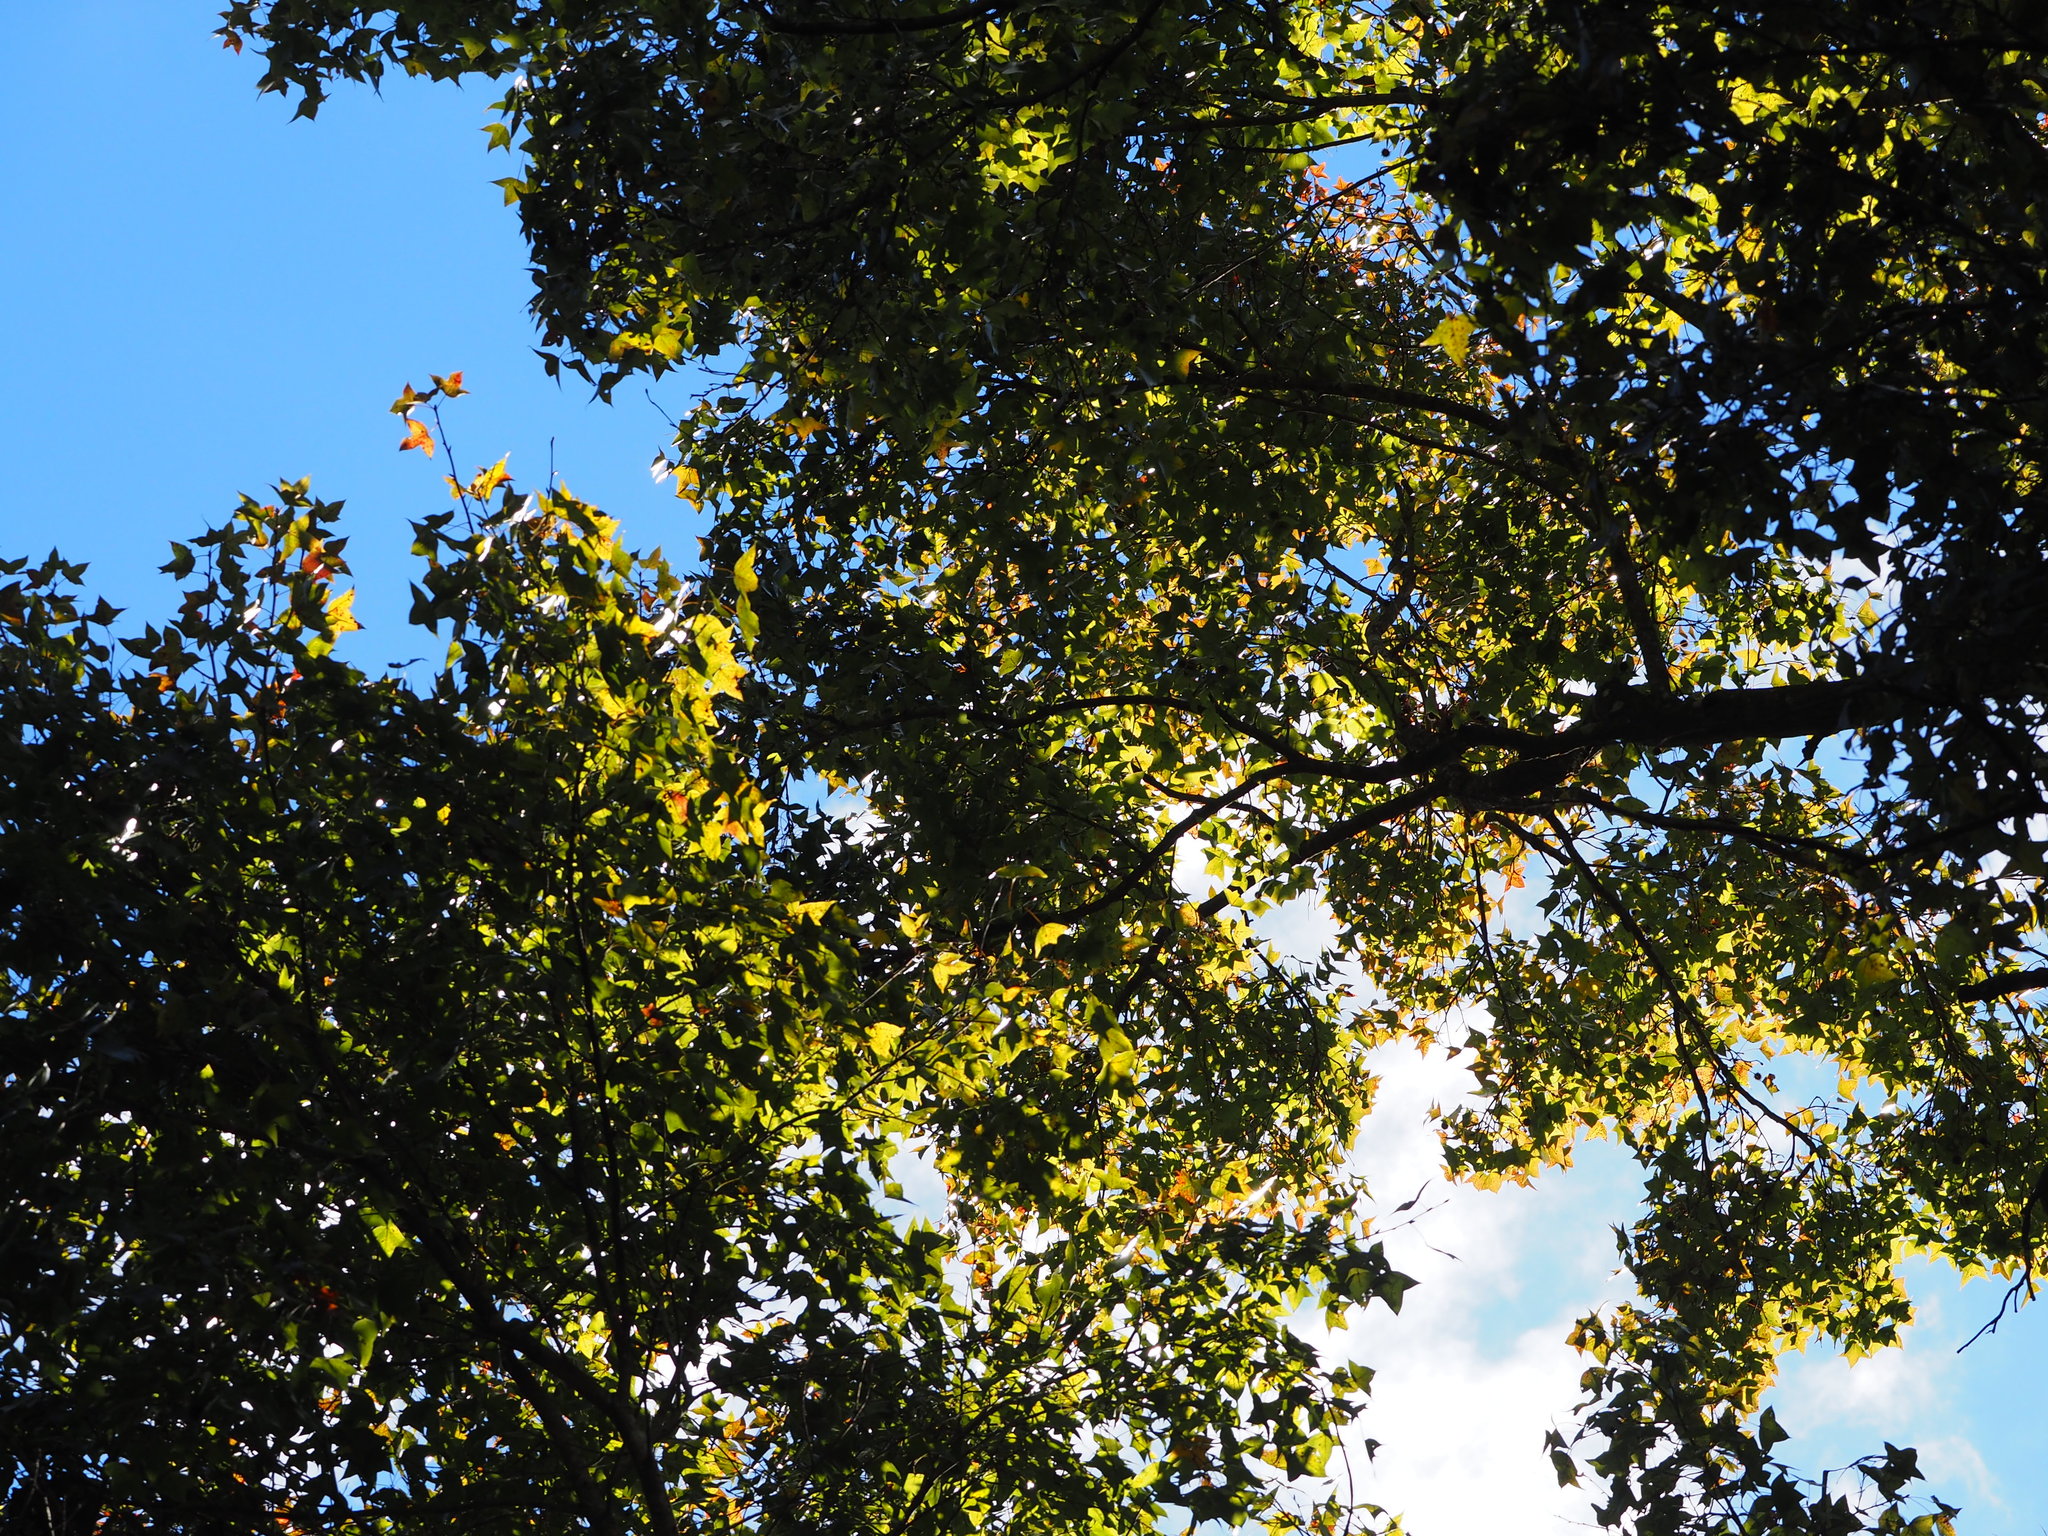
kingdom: Plantae
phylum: Tracheophyta
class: Magnoliopsida
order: Saxifragales
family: Altingiaceae
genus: Liquidambar
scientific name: Liquidambar formosana
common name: Chinese sweet gum
